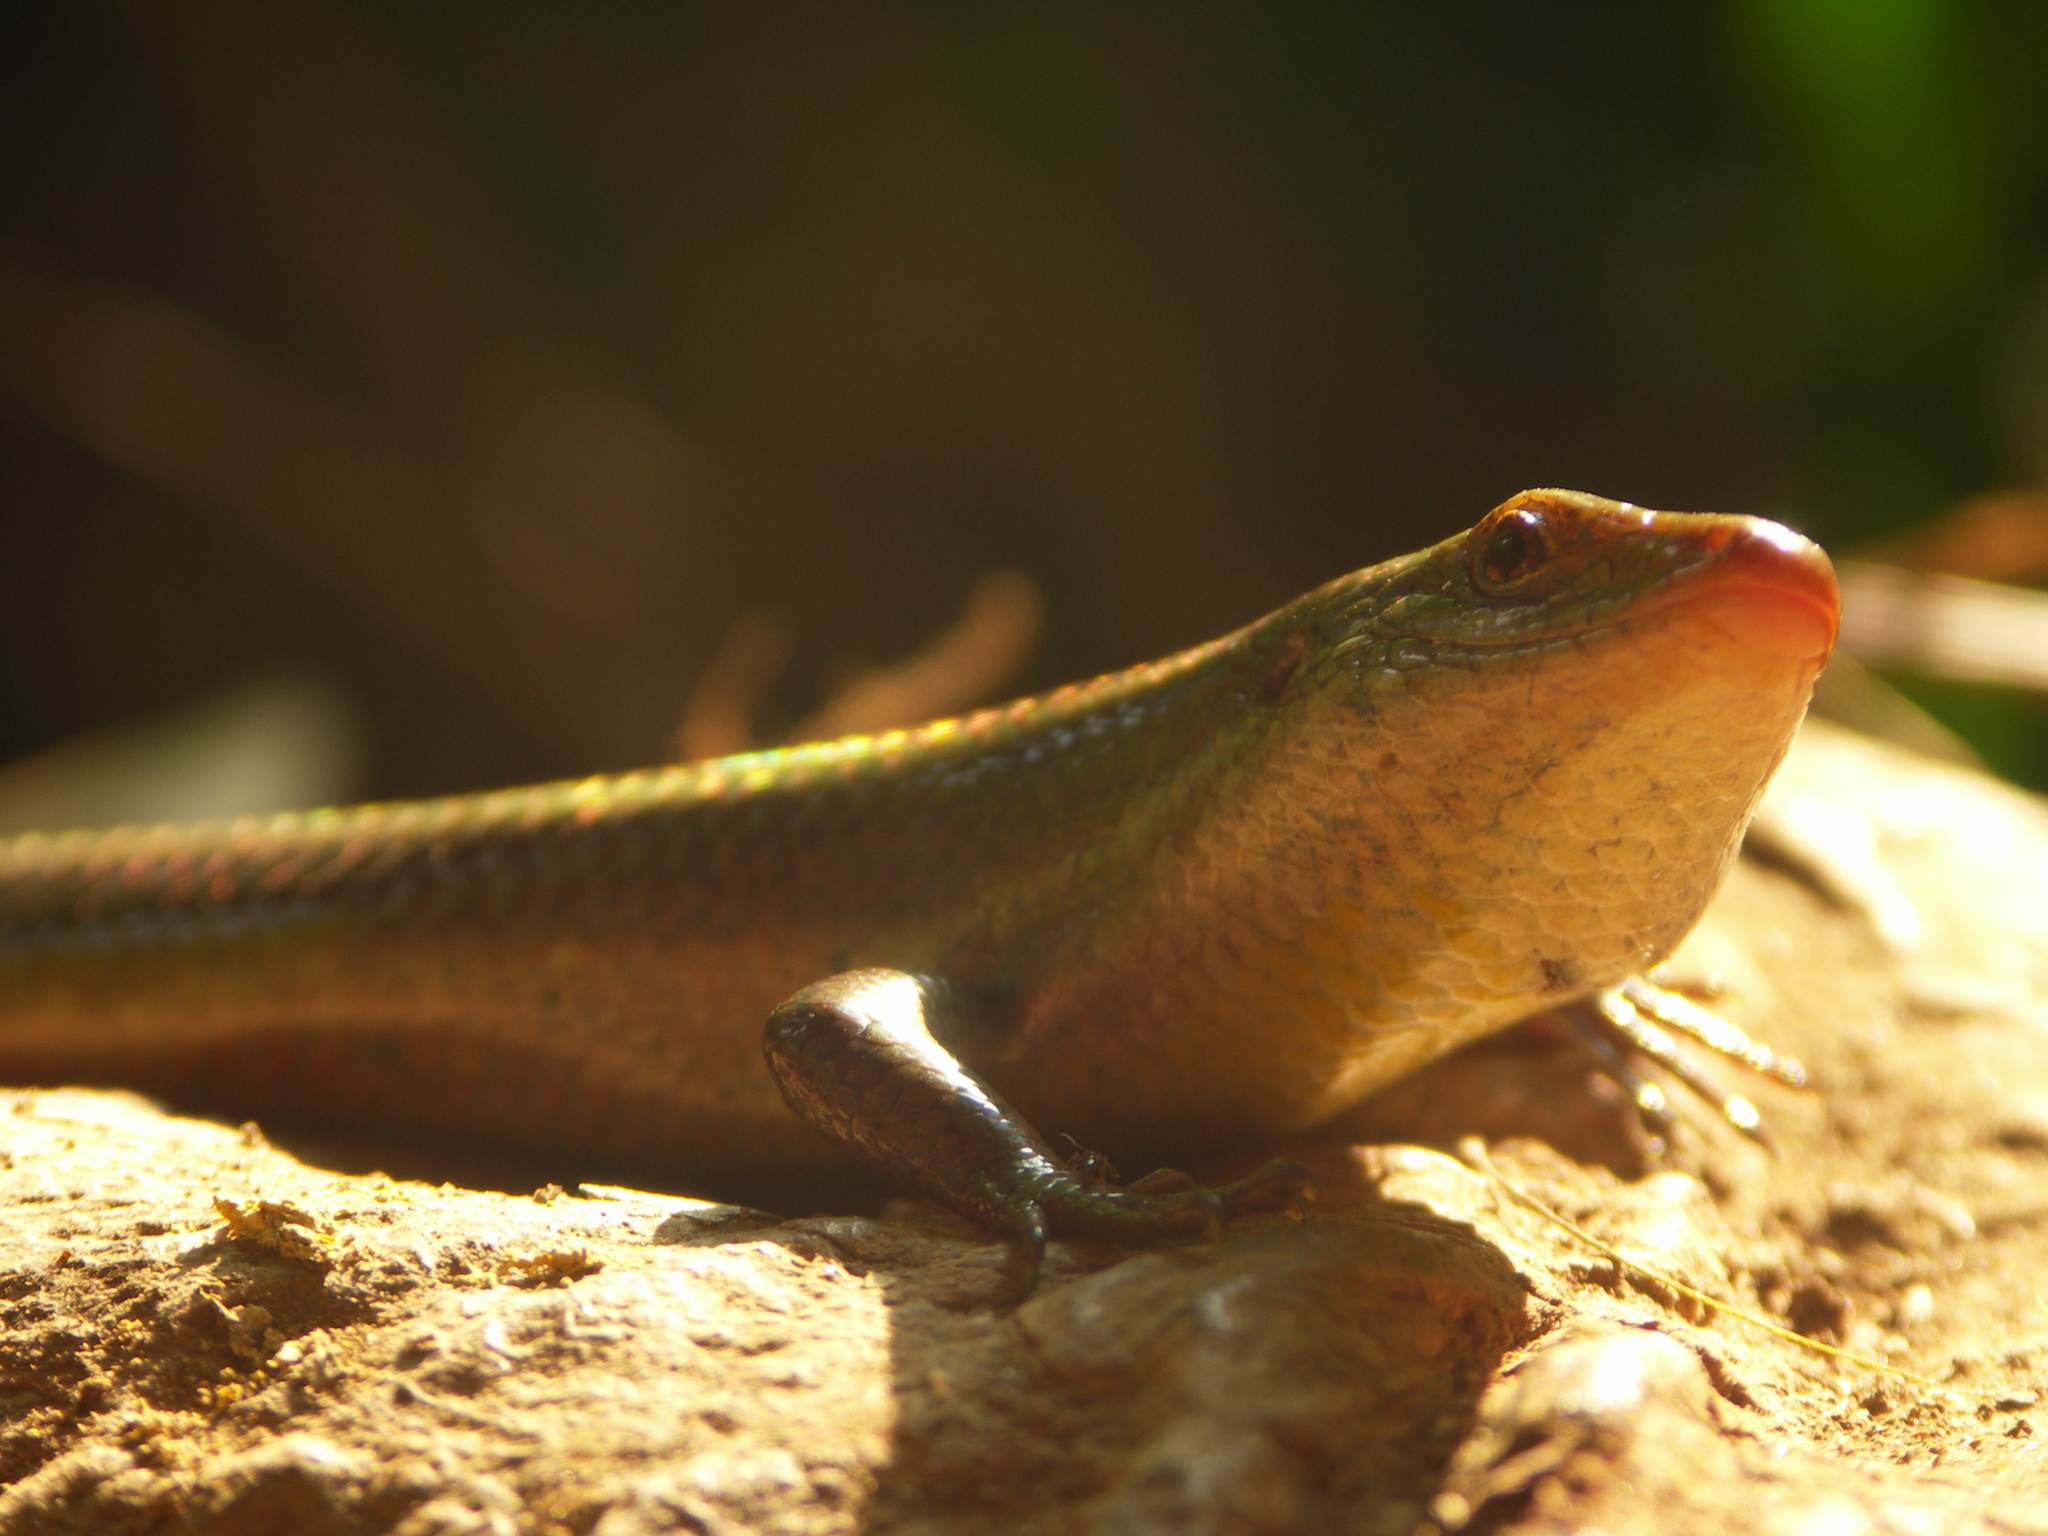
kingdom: Animalia
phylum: Chordata
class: Squamata
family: Scincidae
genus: Eutropis
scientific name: Eutropis carinata
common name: Keeled indian mabuya
